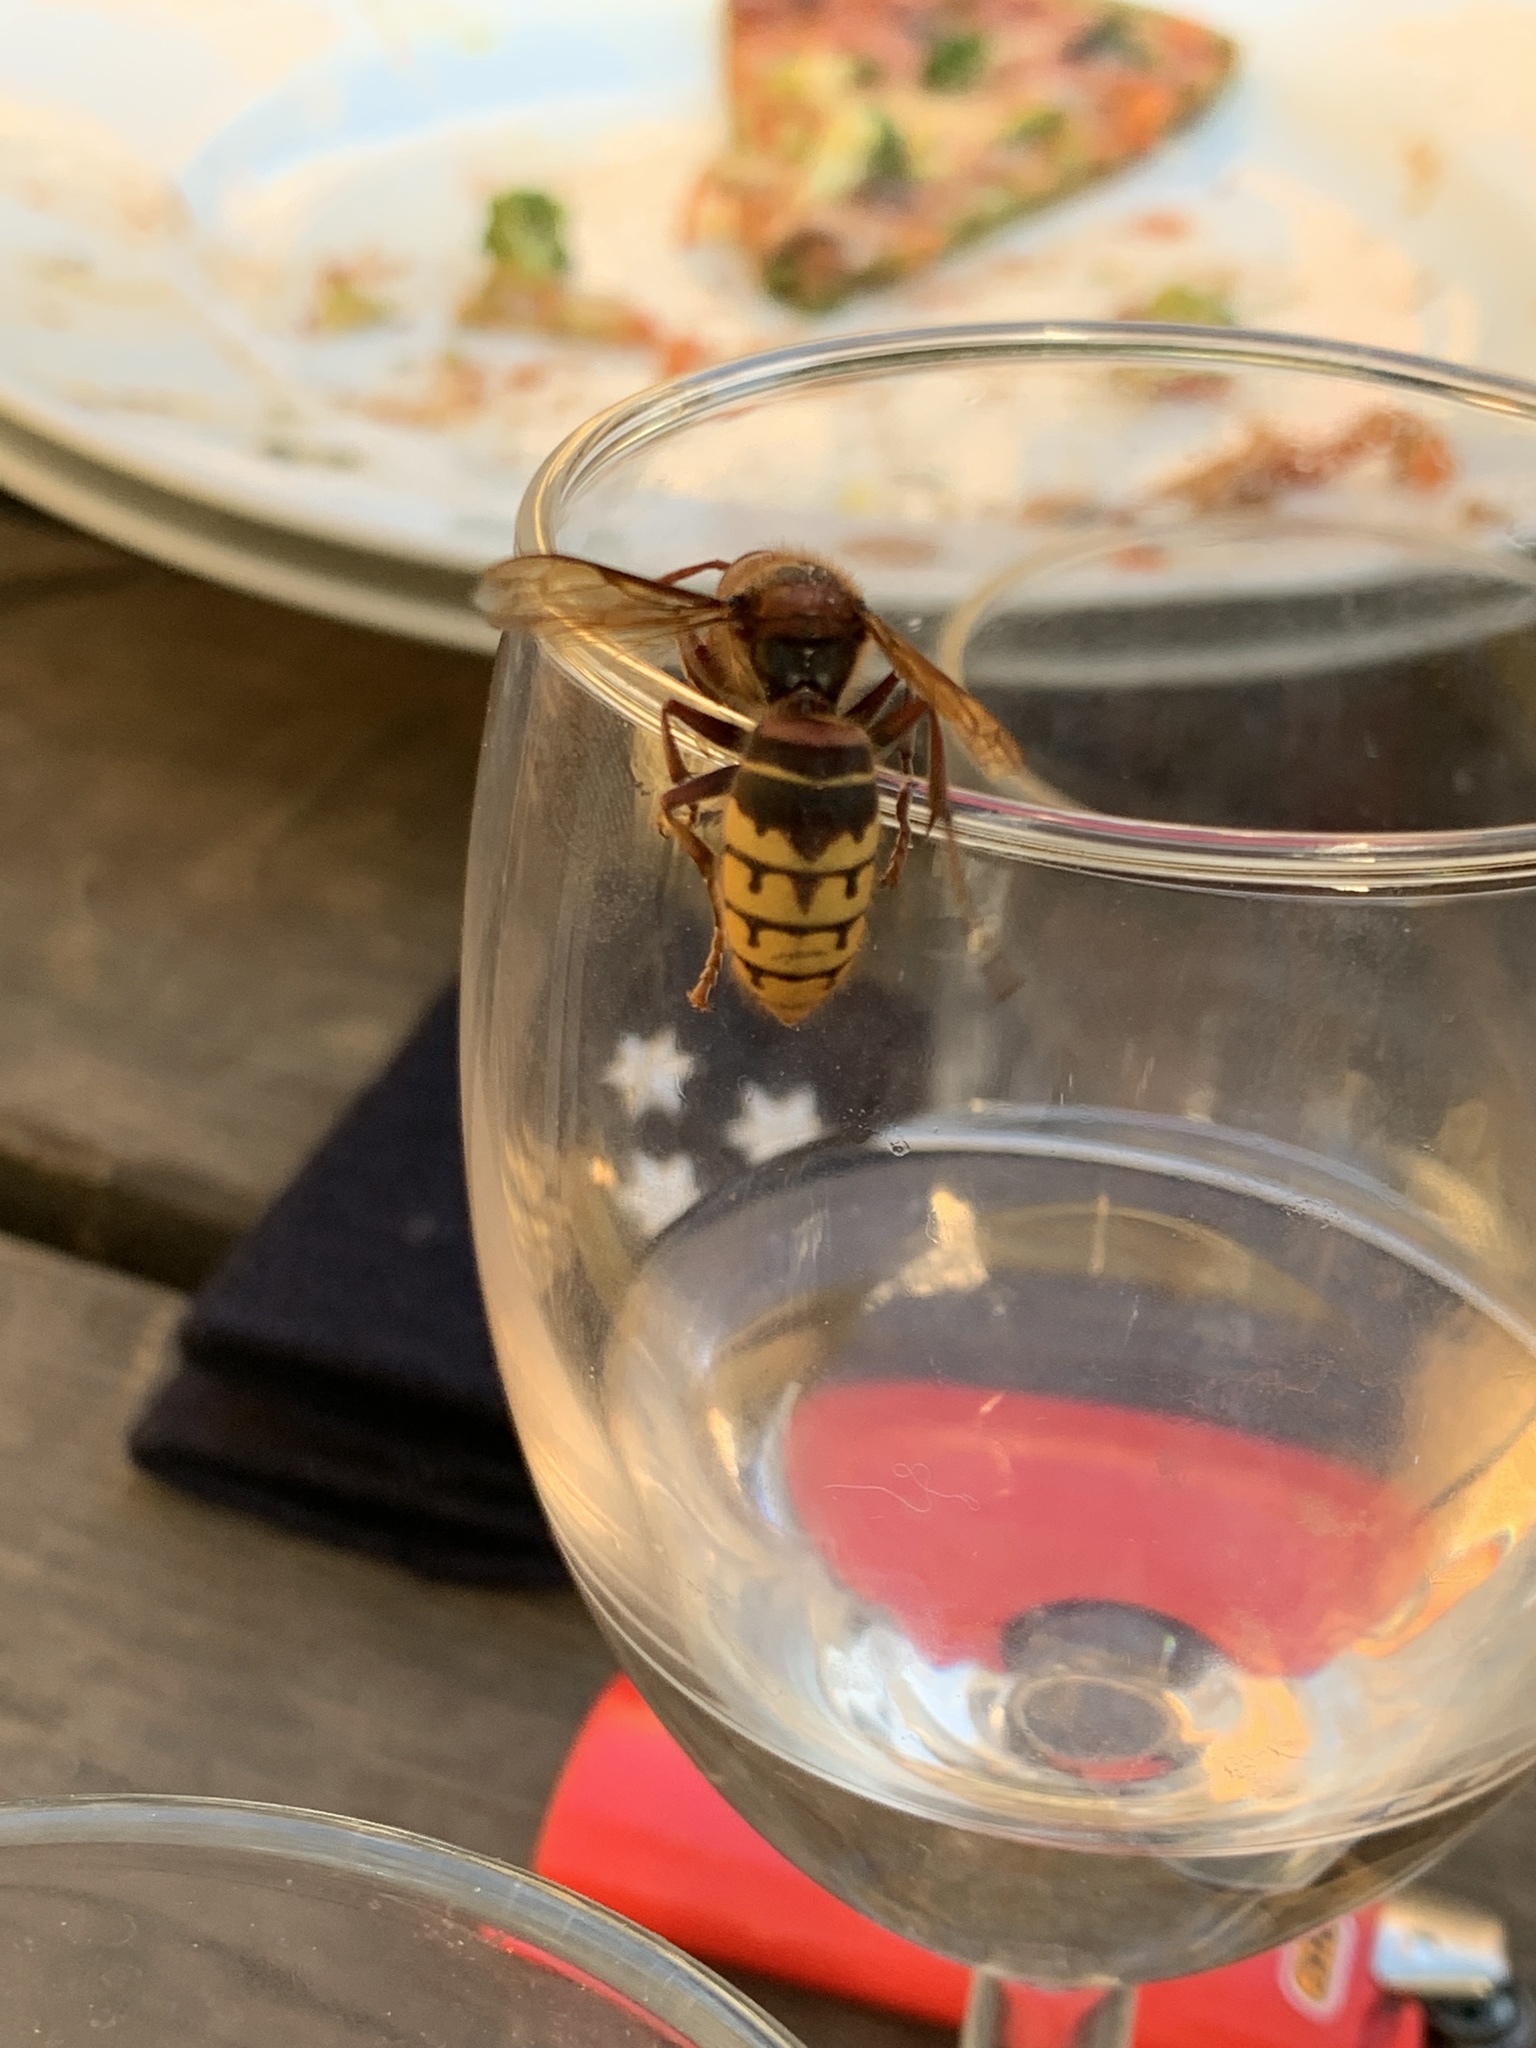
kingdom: Animalia
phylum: Arthropoda
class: Insecta
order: Hymenoptera
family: Vespidae
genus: Vespa
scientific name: Vespa crabro
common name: Hornet
